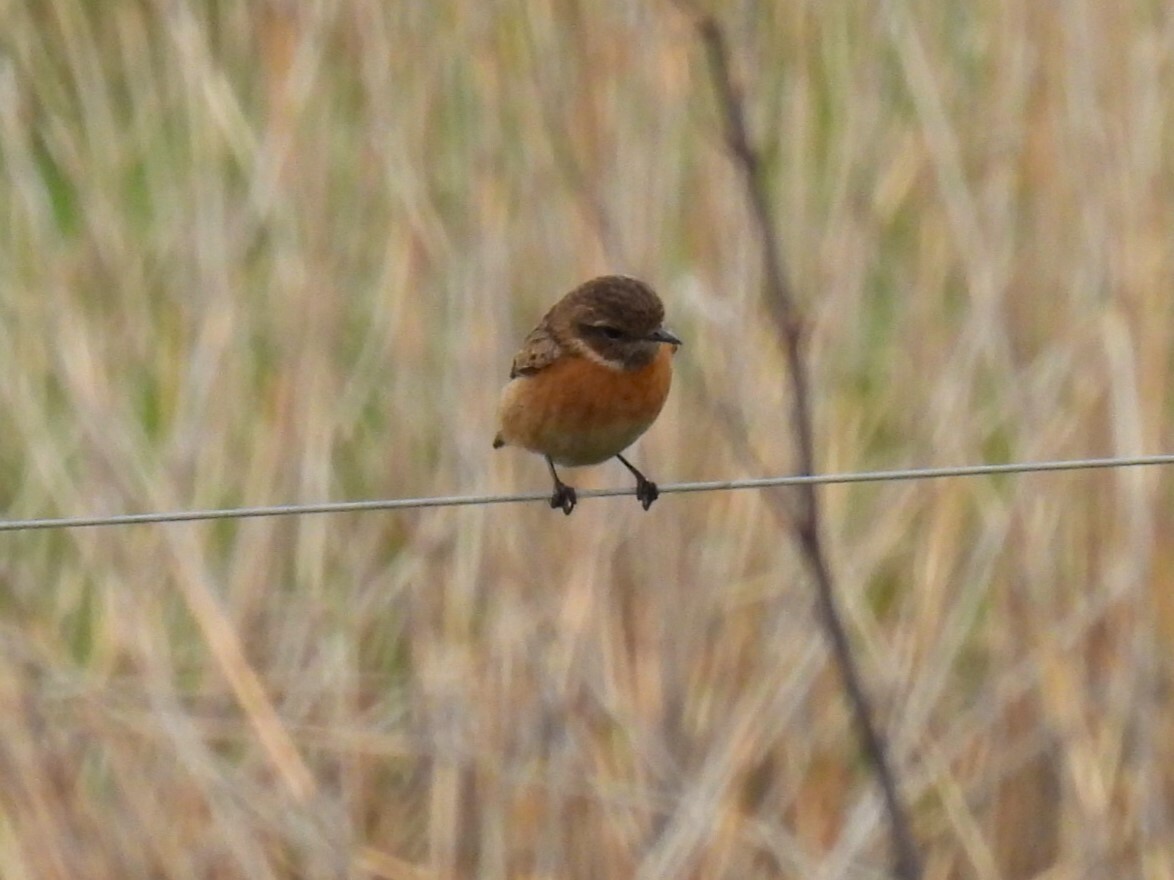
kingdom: Animalia
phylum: Chordata
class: Aves
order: Passeriformes
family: Muscicapidae
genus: Saxicola
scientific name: Saxicola rubicola
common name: European stonechat
